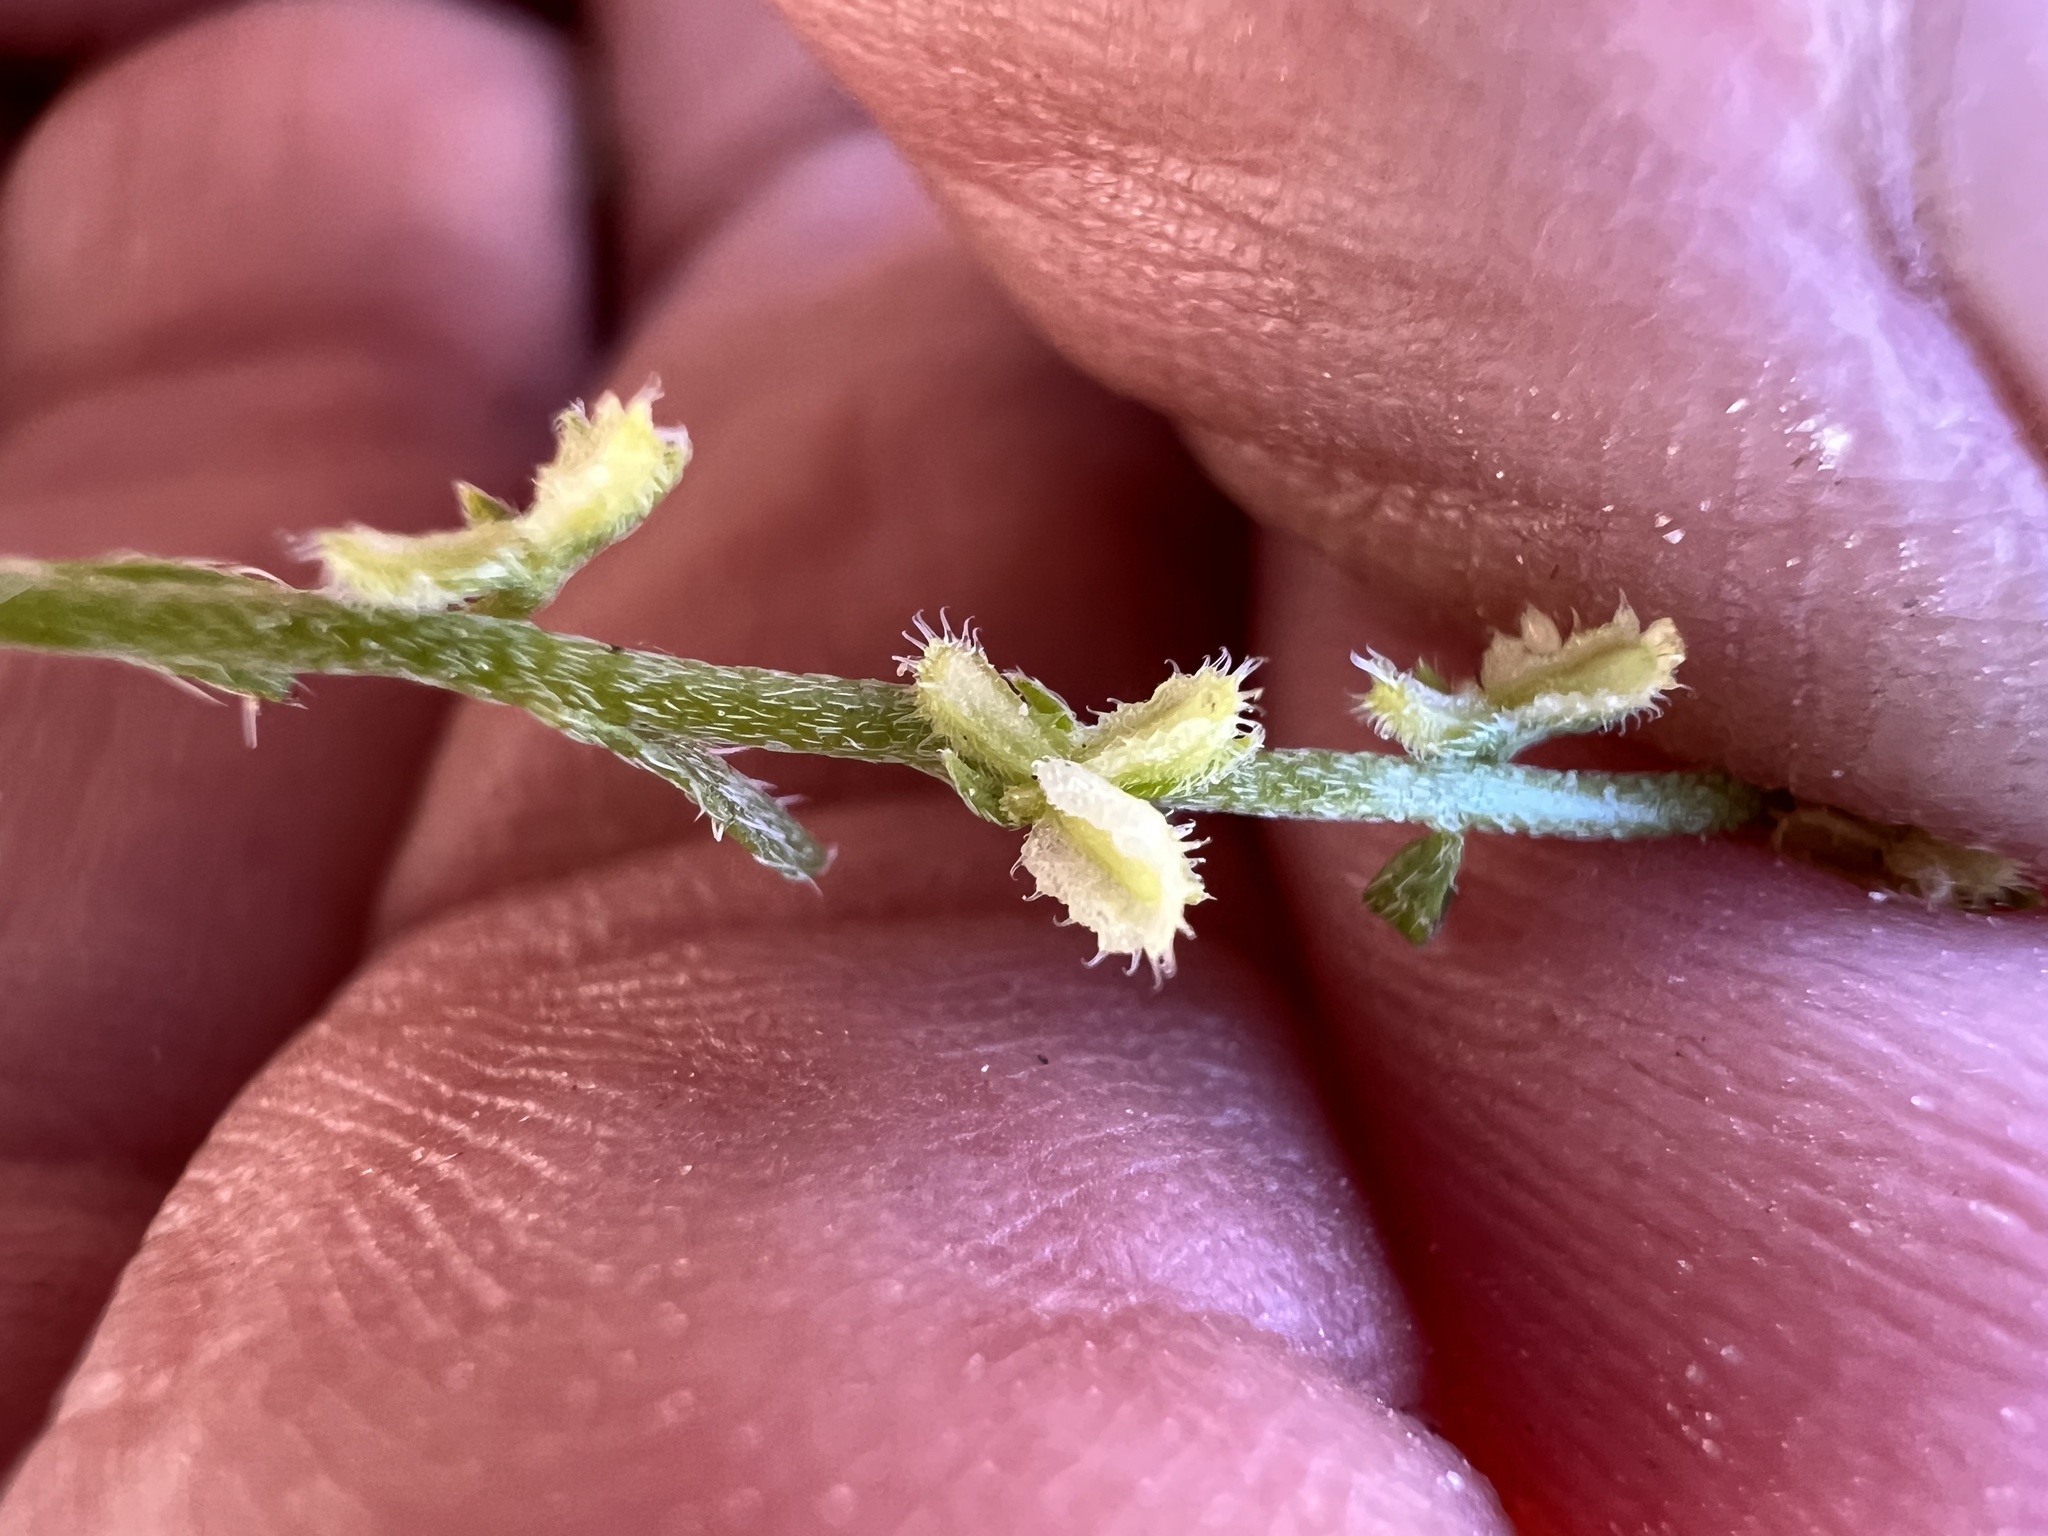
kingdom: Plantae
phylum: Tracheophyta
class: Magnoliopsida
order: Boraginales
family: Boraginaceae
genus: Pectocarya
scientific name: Pectocarya heterocarpa
